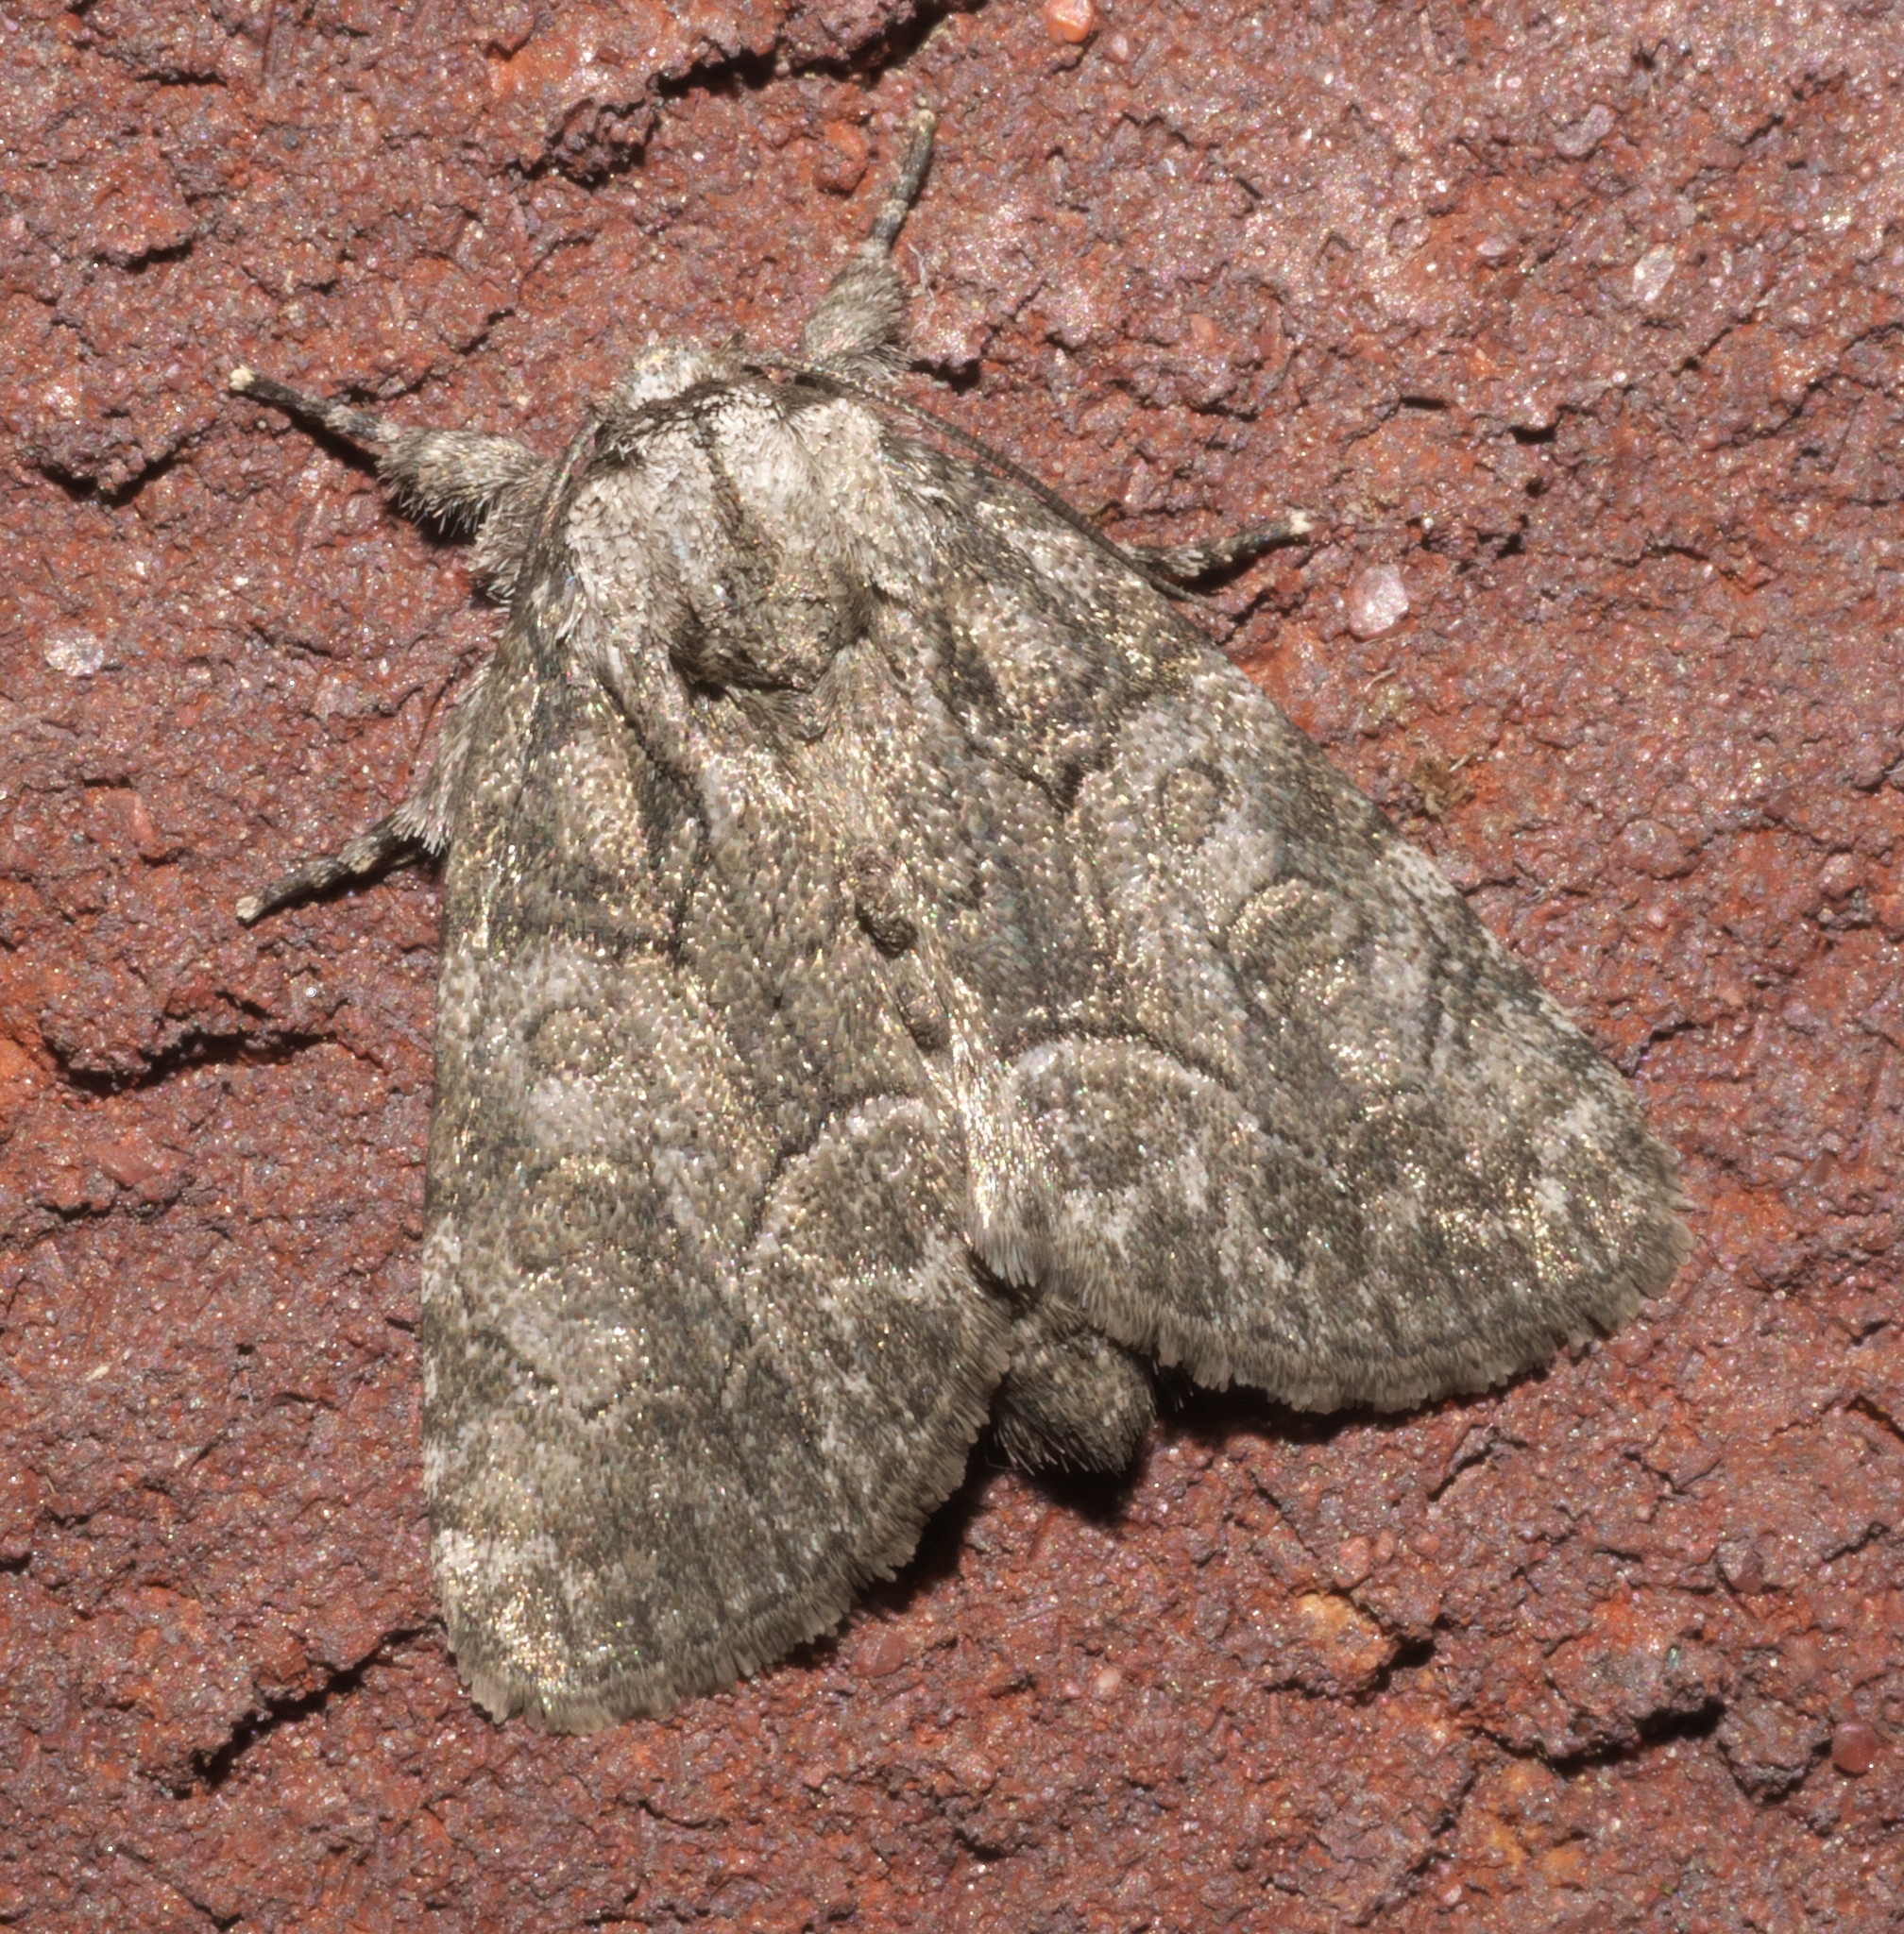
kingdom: Animalia
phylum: Arthropoda
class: Insecta
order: Lepidoptera
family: Noctuidae
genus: Raphia
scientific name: Raphia frater
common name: Brother
